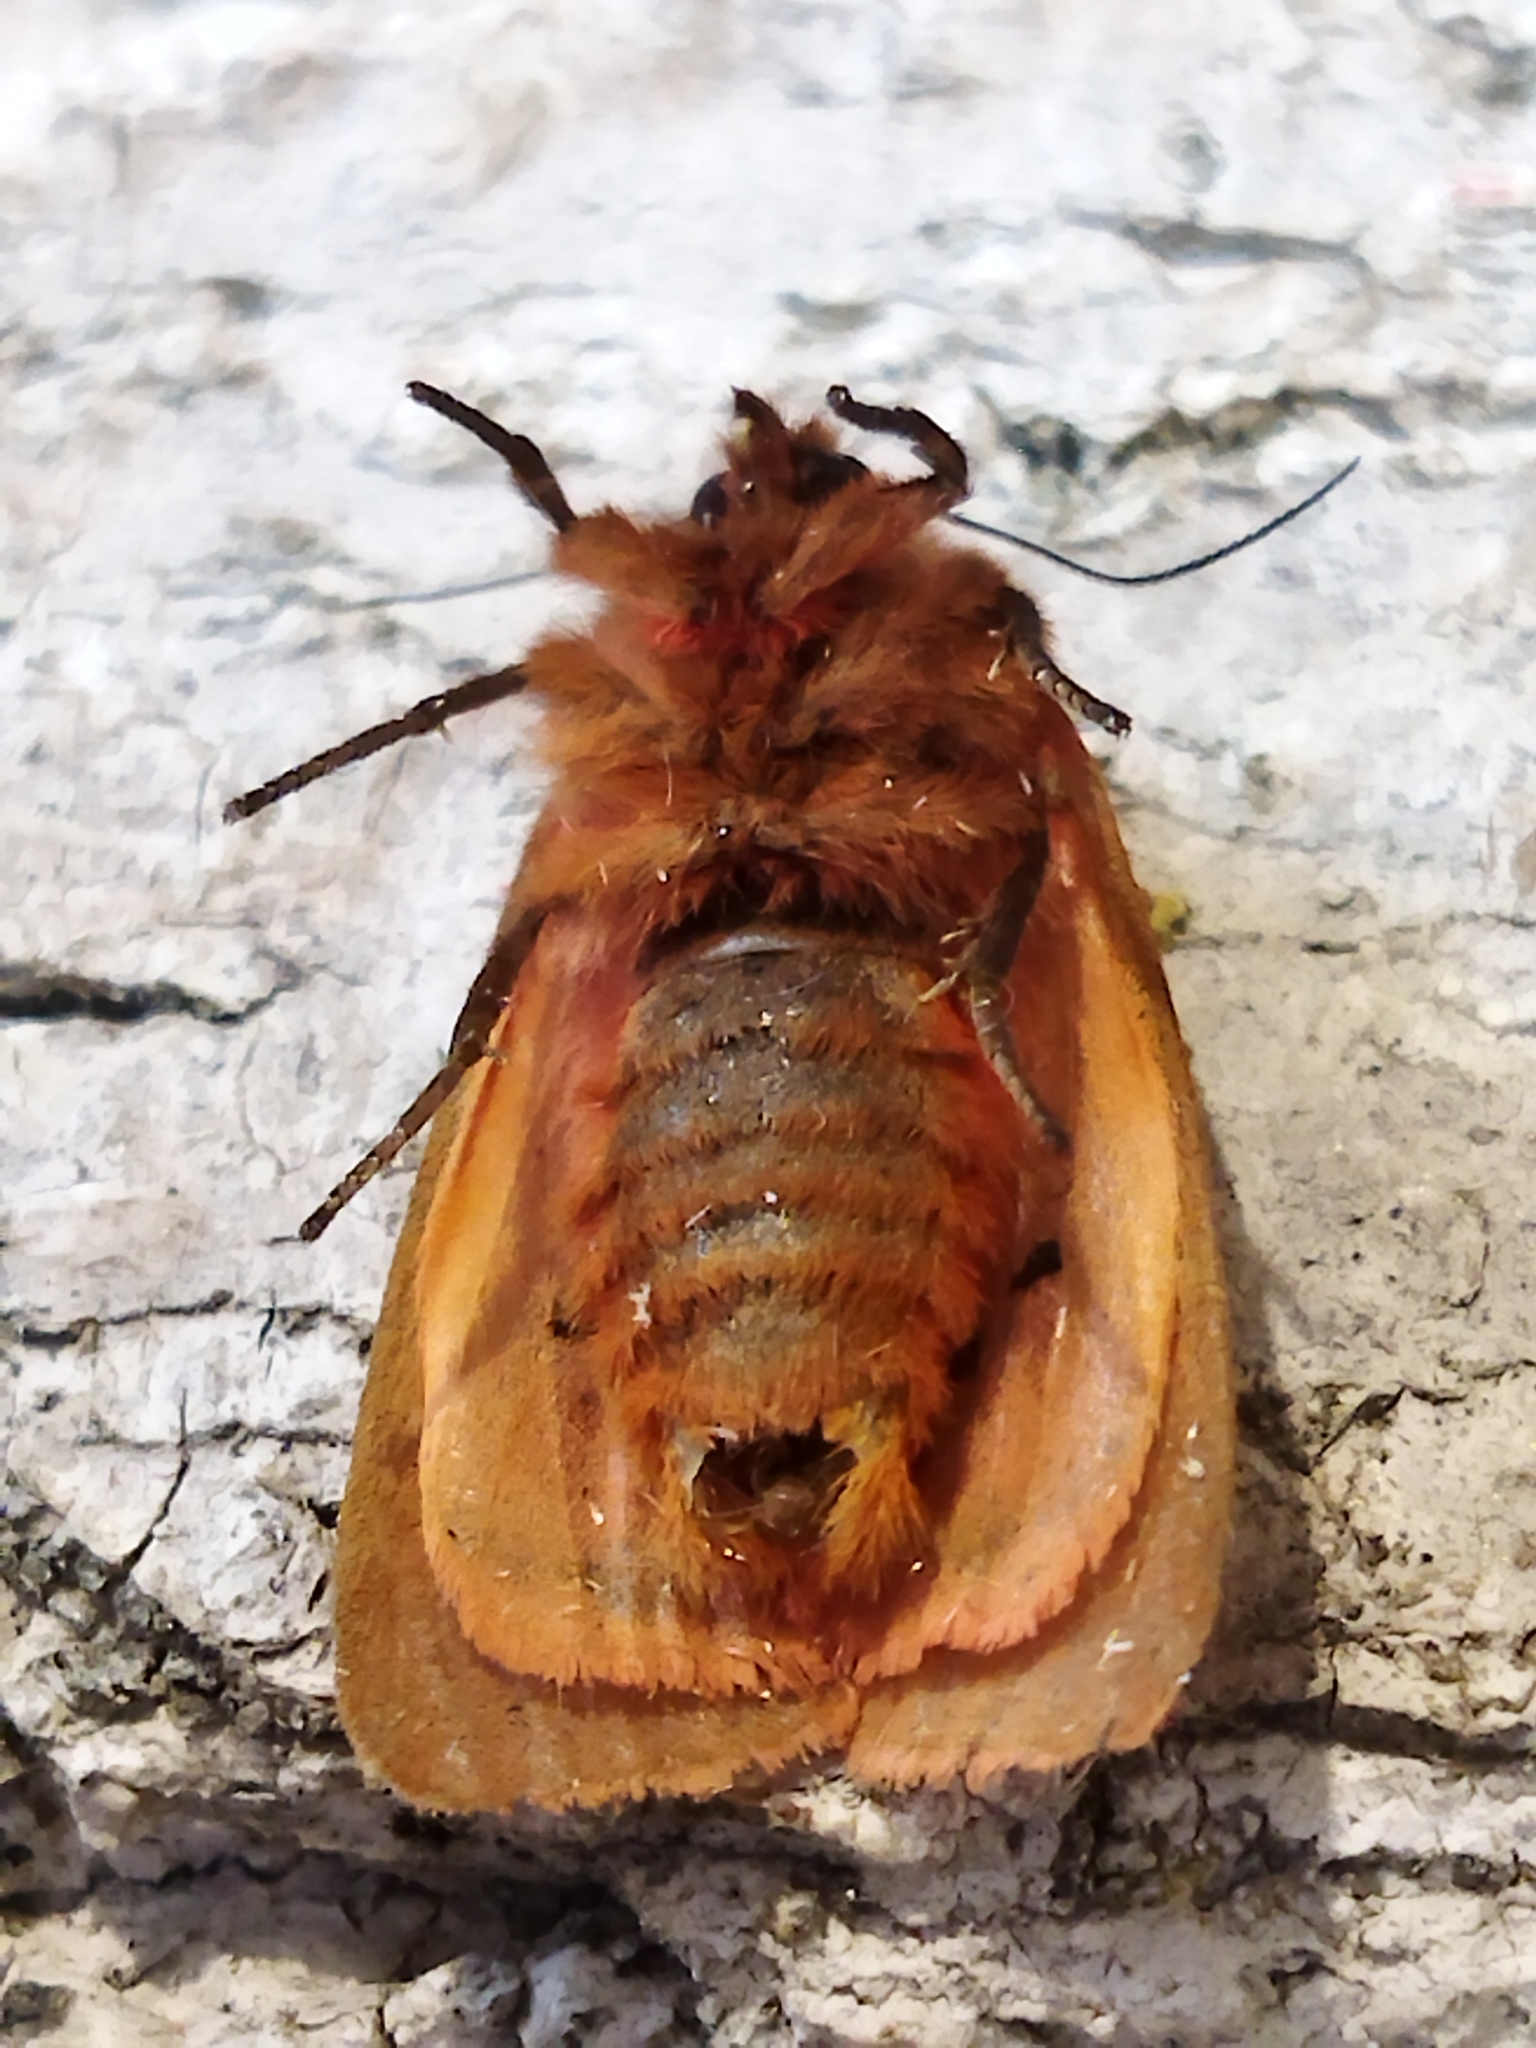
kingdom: Animalia
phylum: Arthropoda
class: Insecta
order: Lepidoptera
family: Erebidae
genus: Phragmatobia
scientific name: Phragmatobia fuliginosa
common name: Ruby tiger
